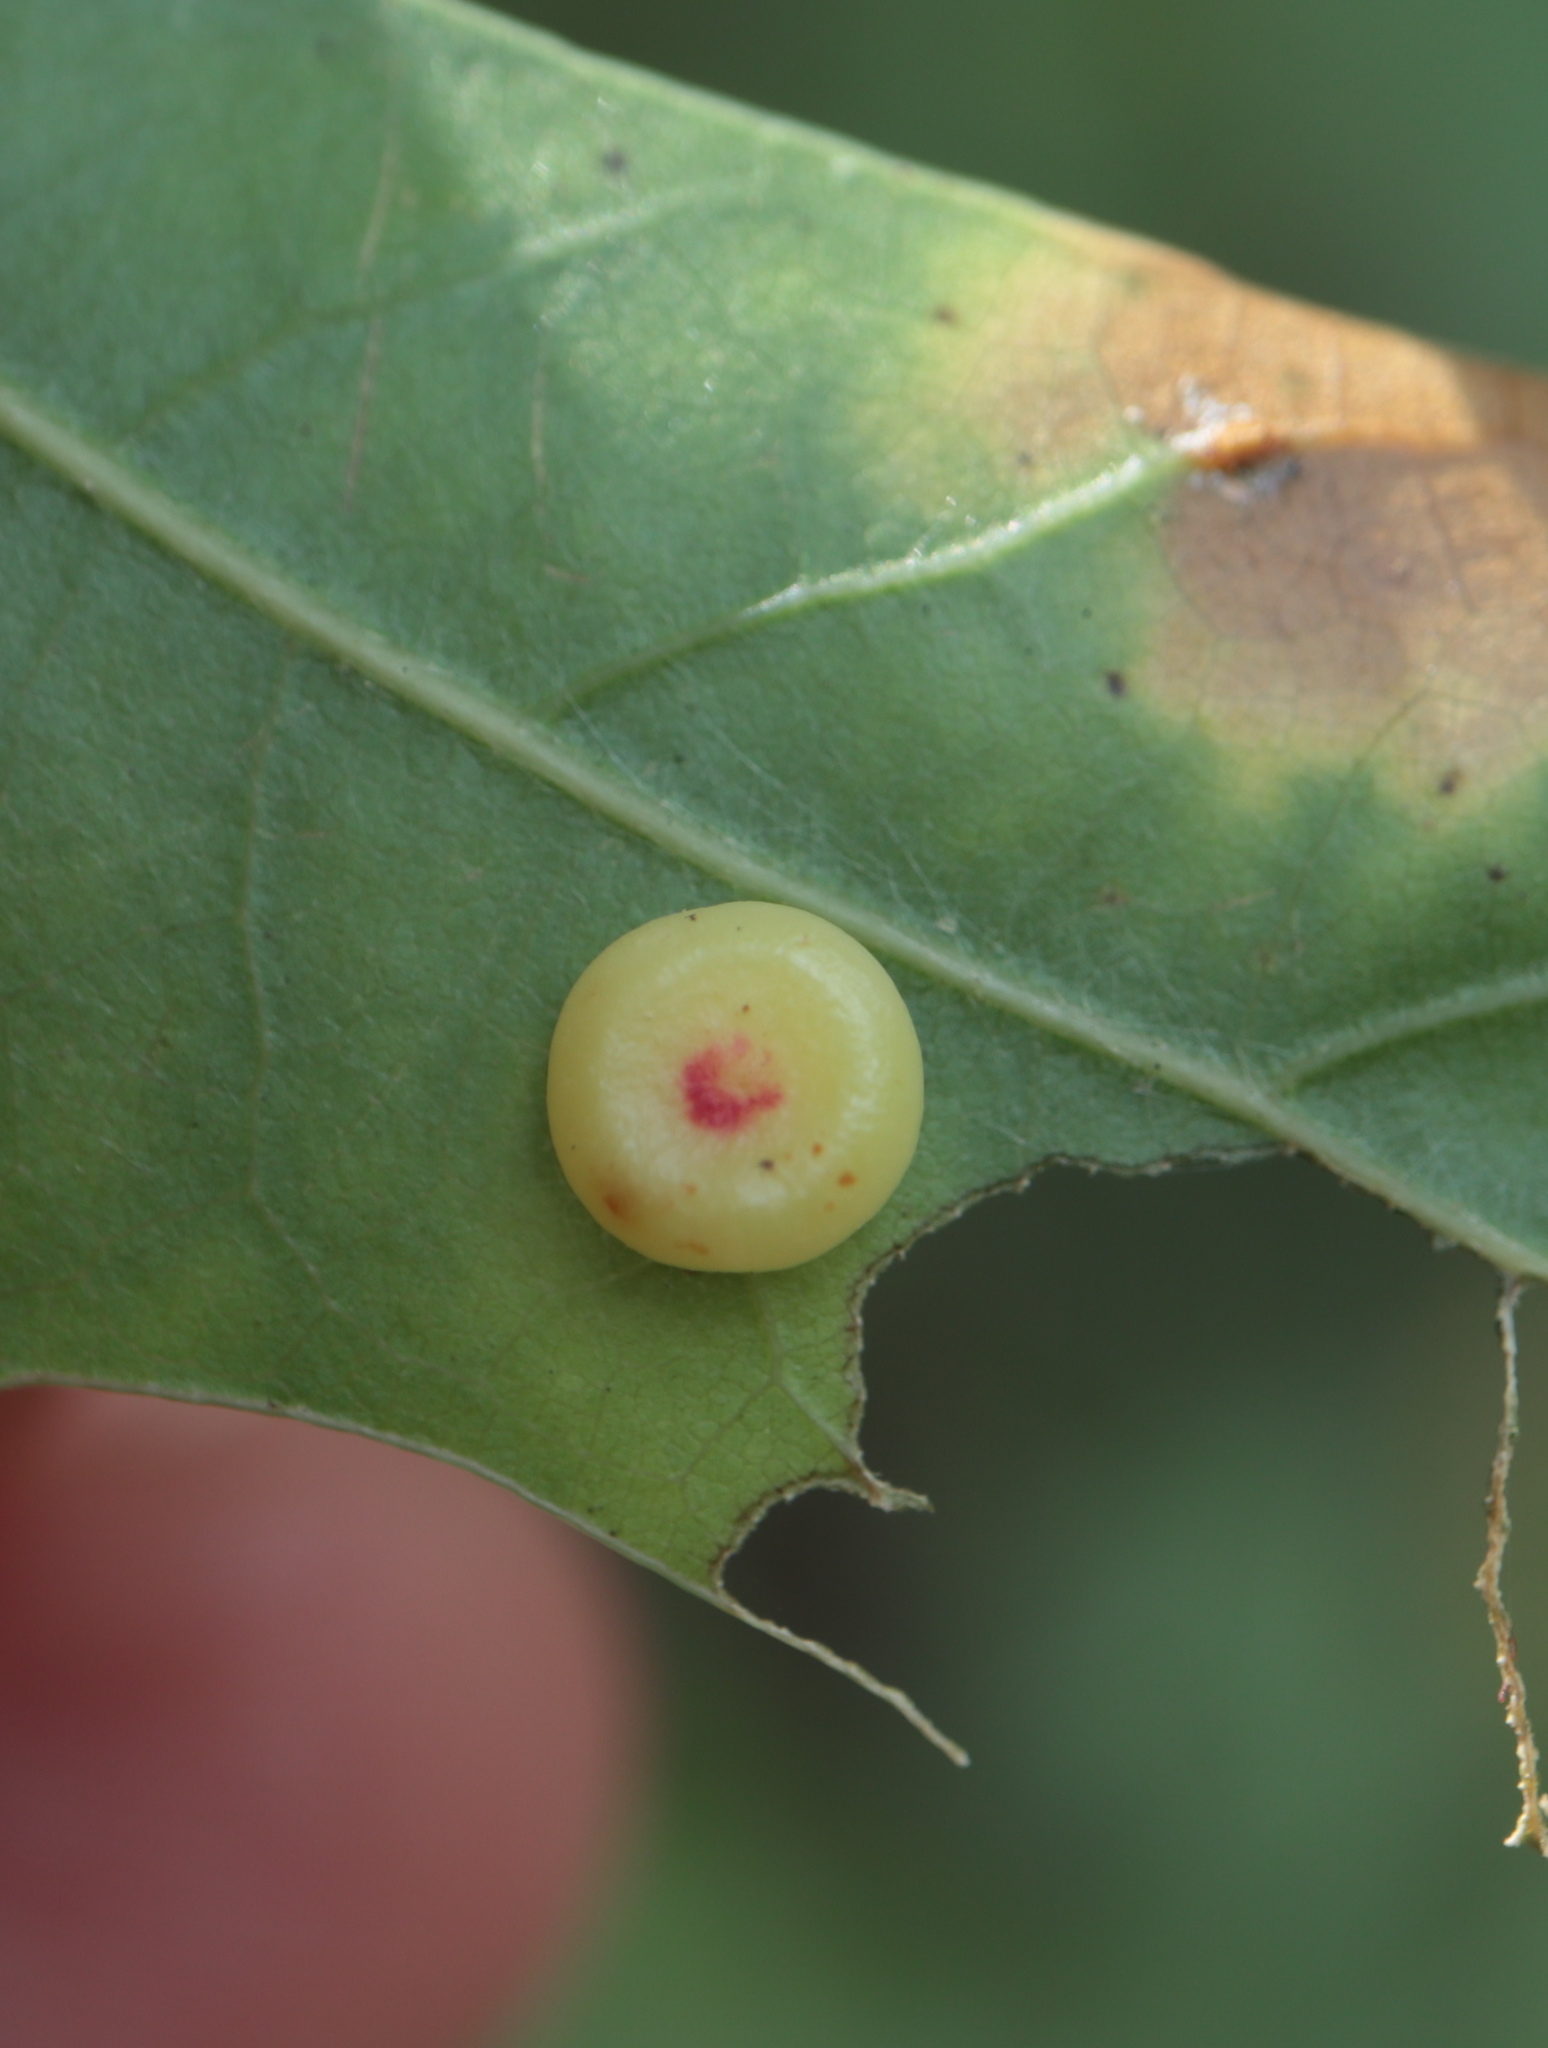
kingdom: Animalia
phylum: Arthropoda
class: Insecta
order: Hymenoptera
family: Cynipidae
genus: Dryocosmus
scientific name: Dryocosmus
